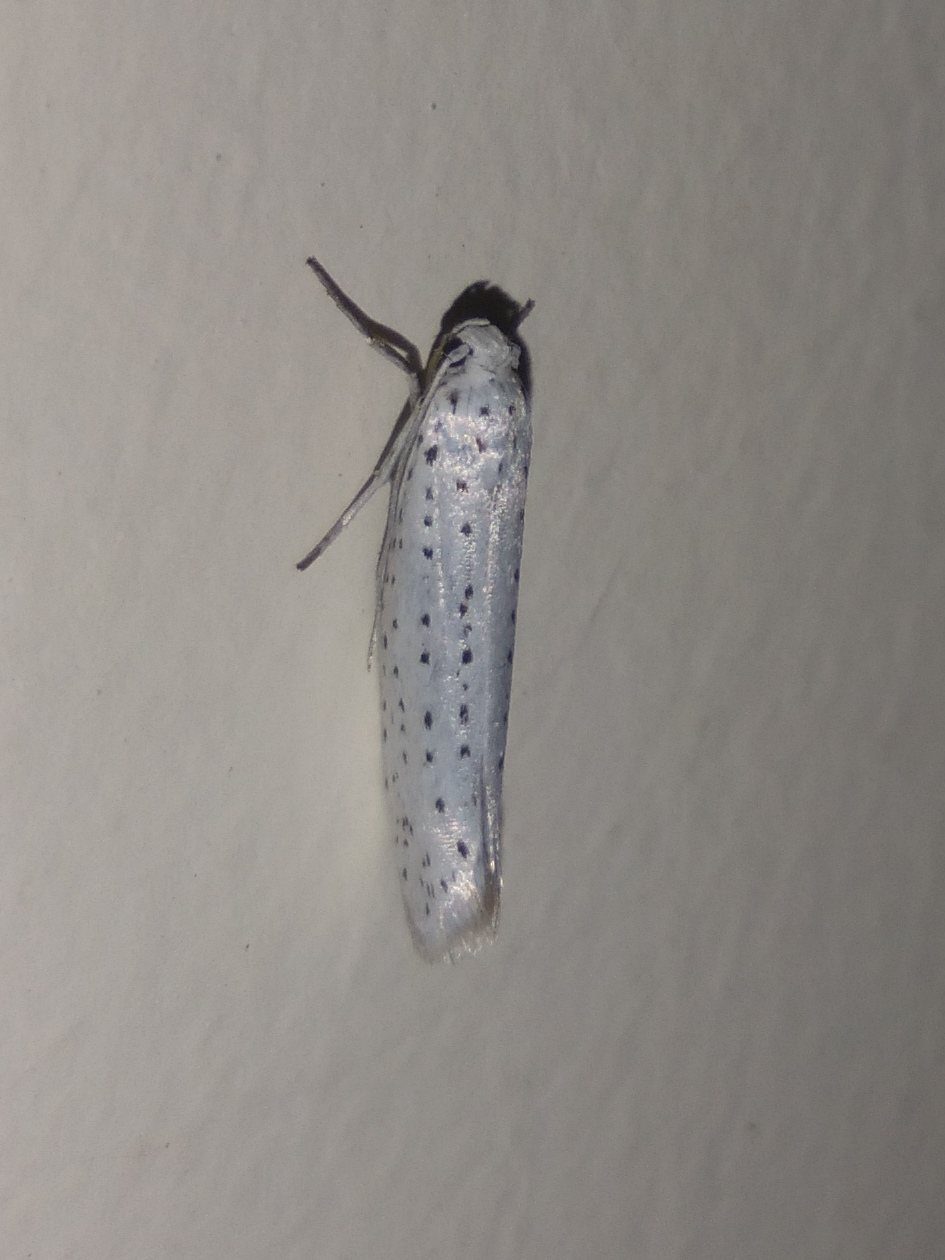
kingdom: Animalia
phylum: Arthropoda
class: Insecta
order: Lepidoptera
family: Yponomeutidae
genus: Yponomeuta
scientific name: Yponomeuta evonymella
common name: Bird-cherry ermine
